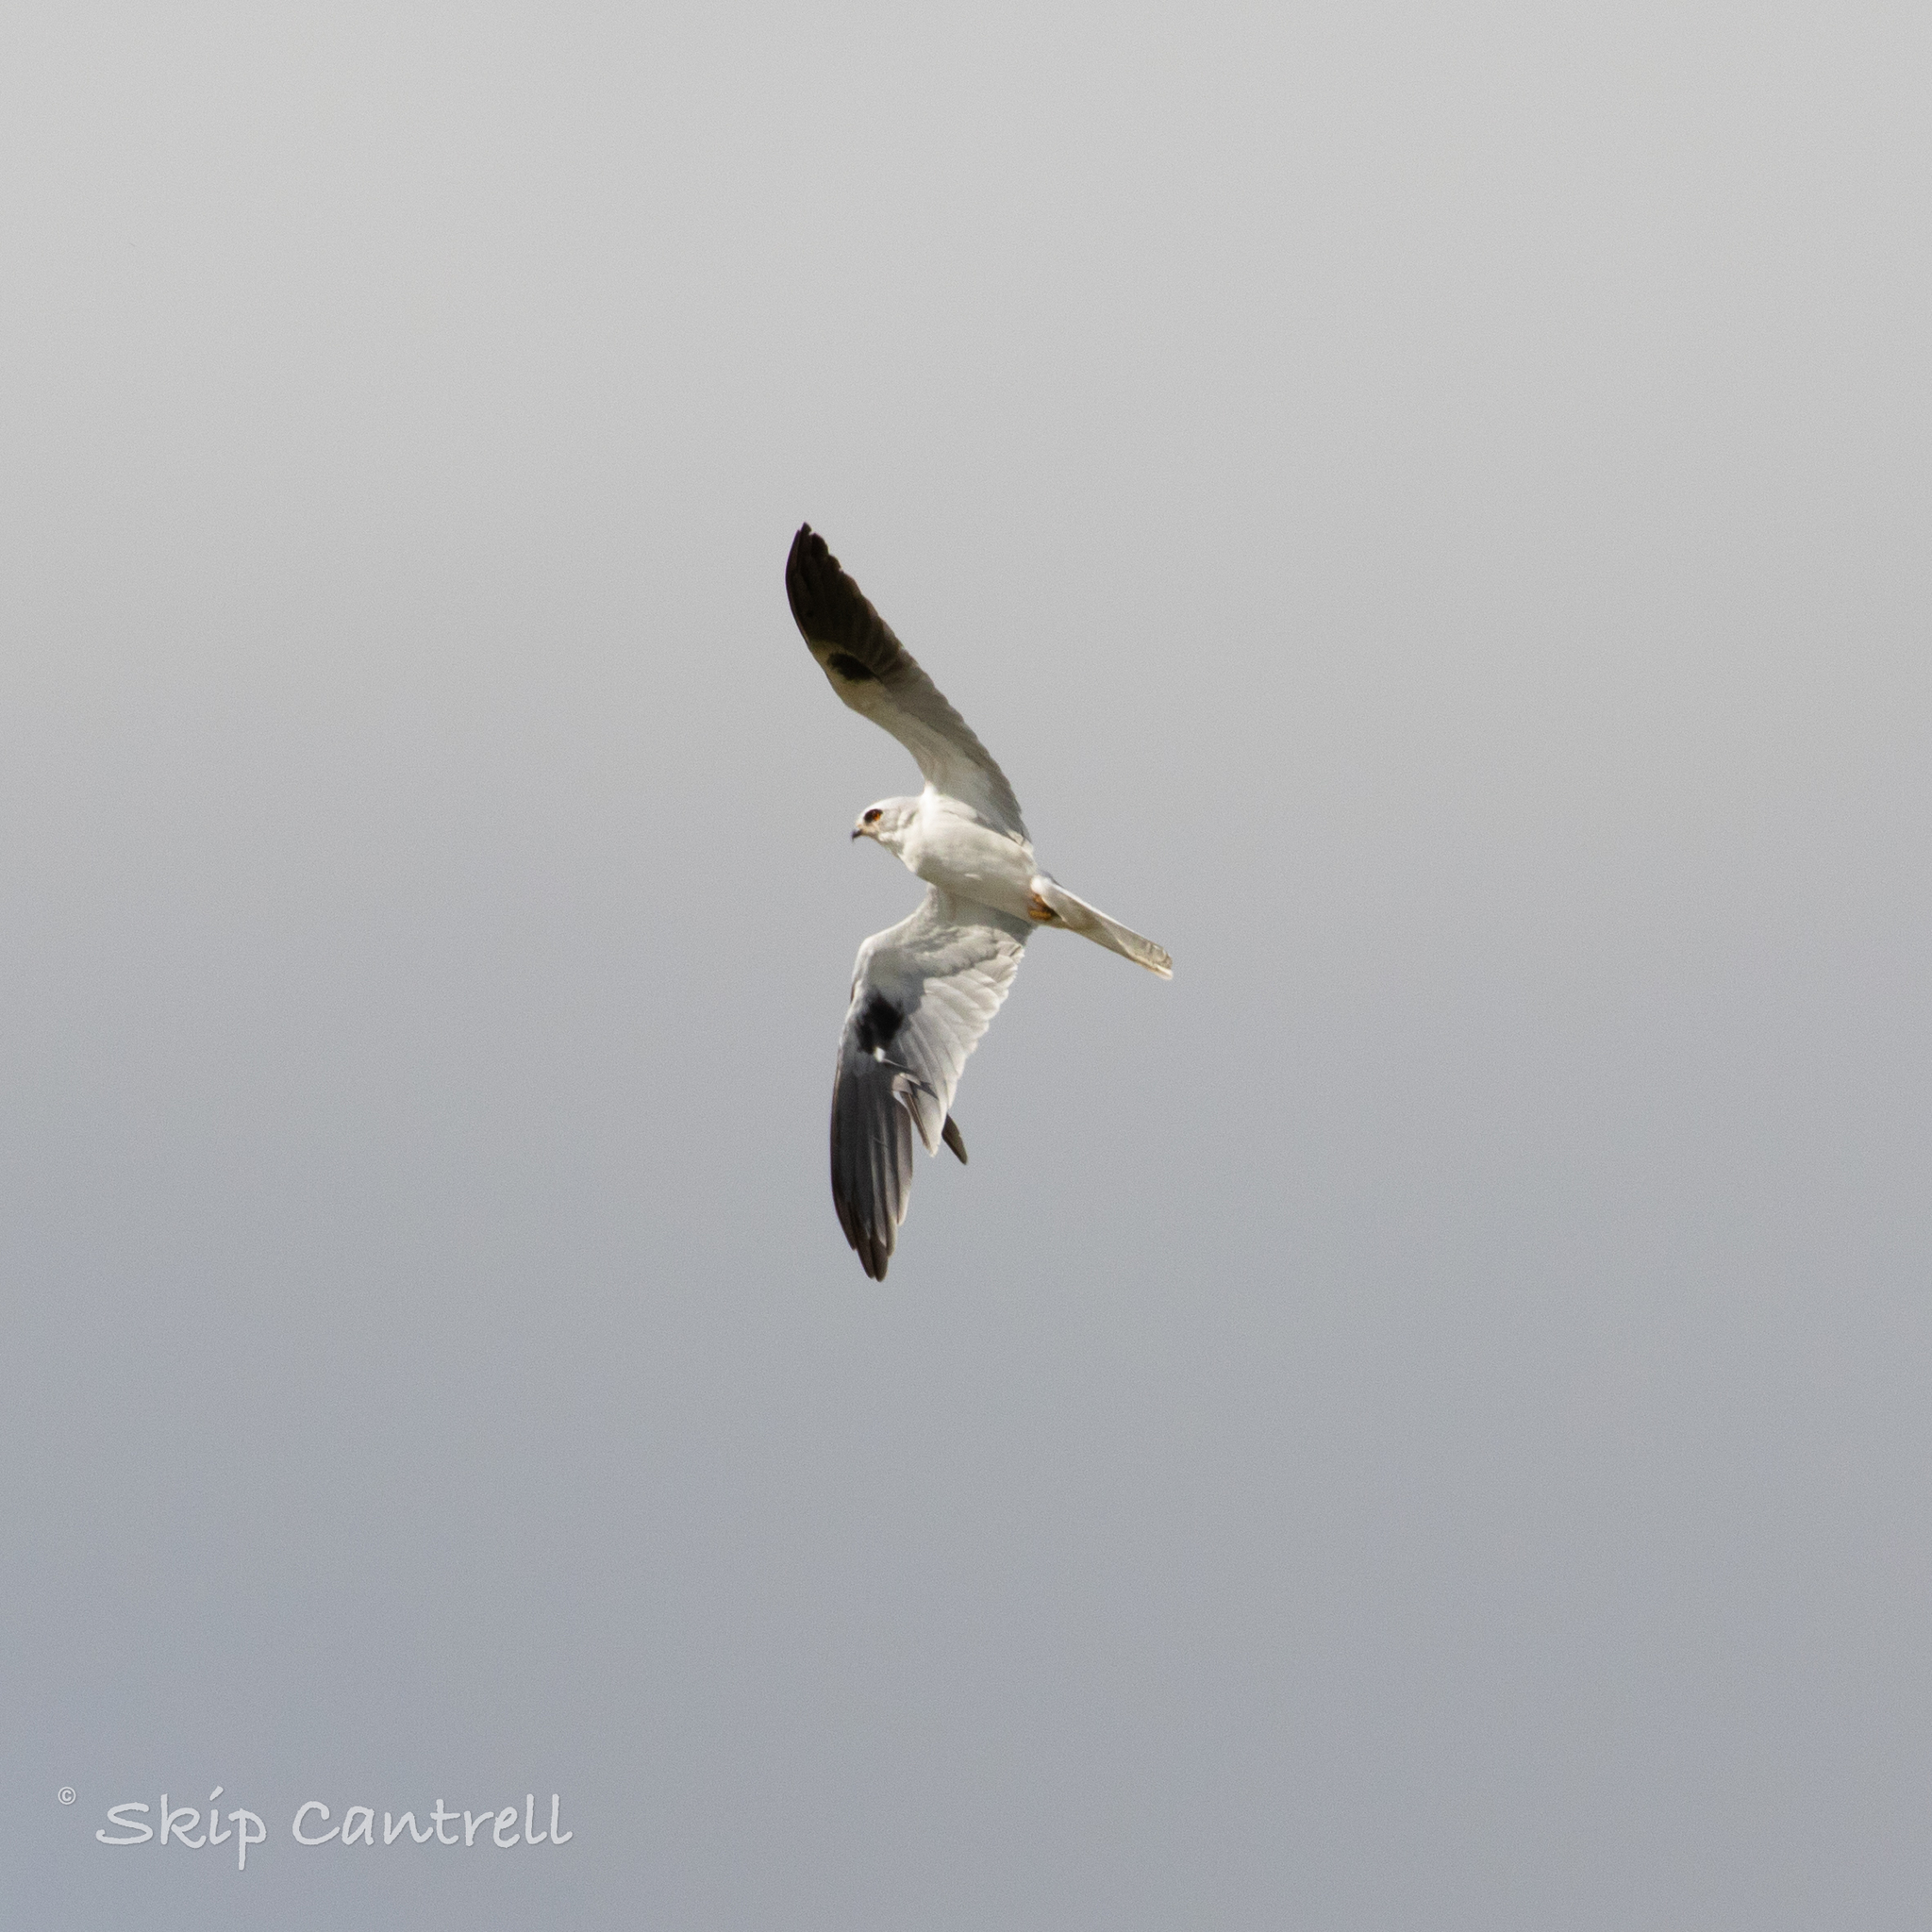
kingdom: Animalia
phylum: Chordata
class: Aves
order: Accipitriformes
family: Accipitridae
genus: Elanus
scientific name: Elanus leucurus
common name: White-tailed kite
